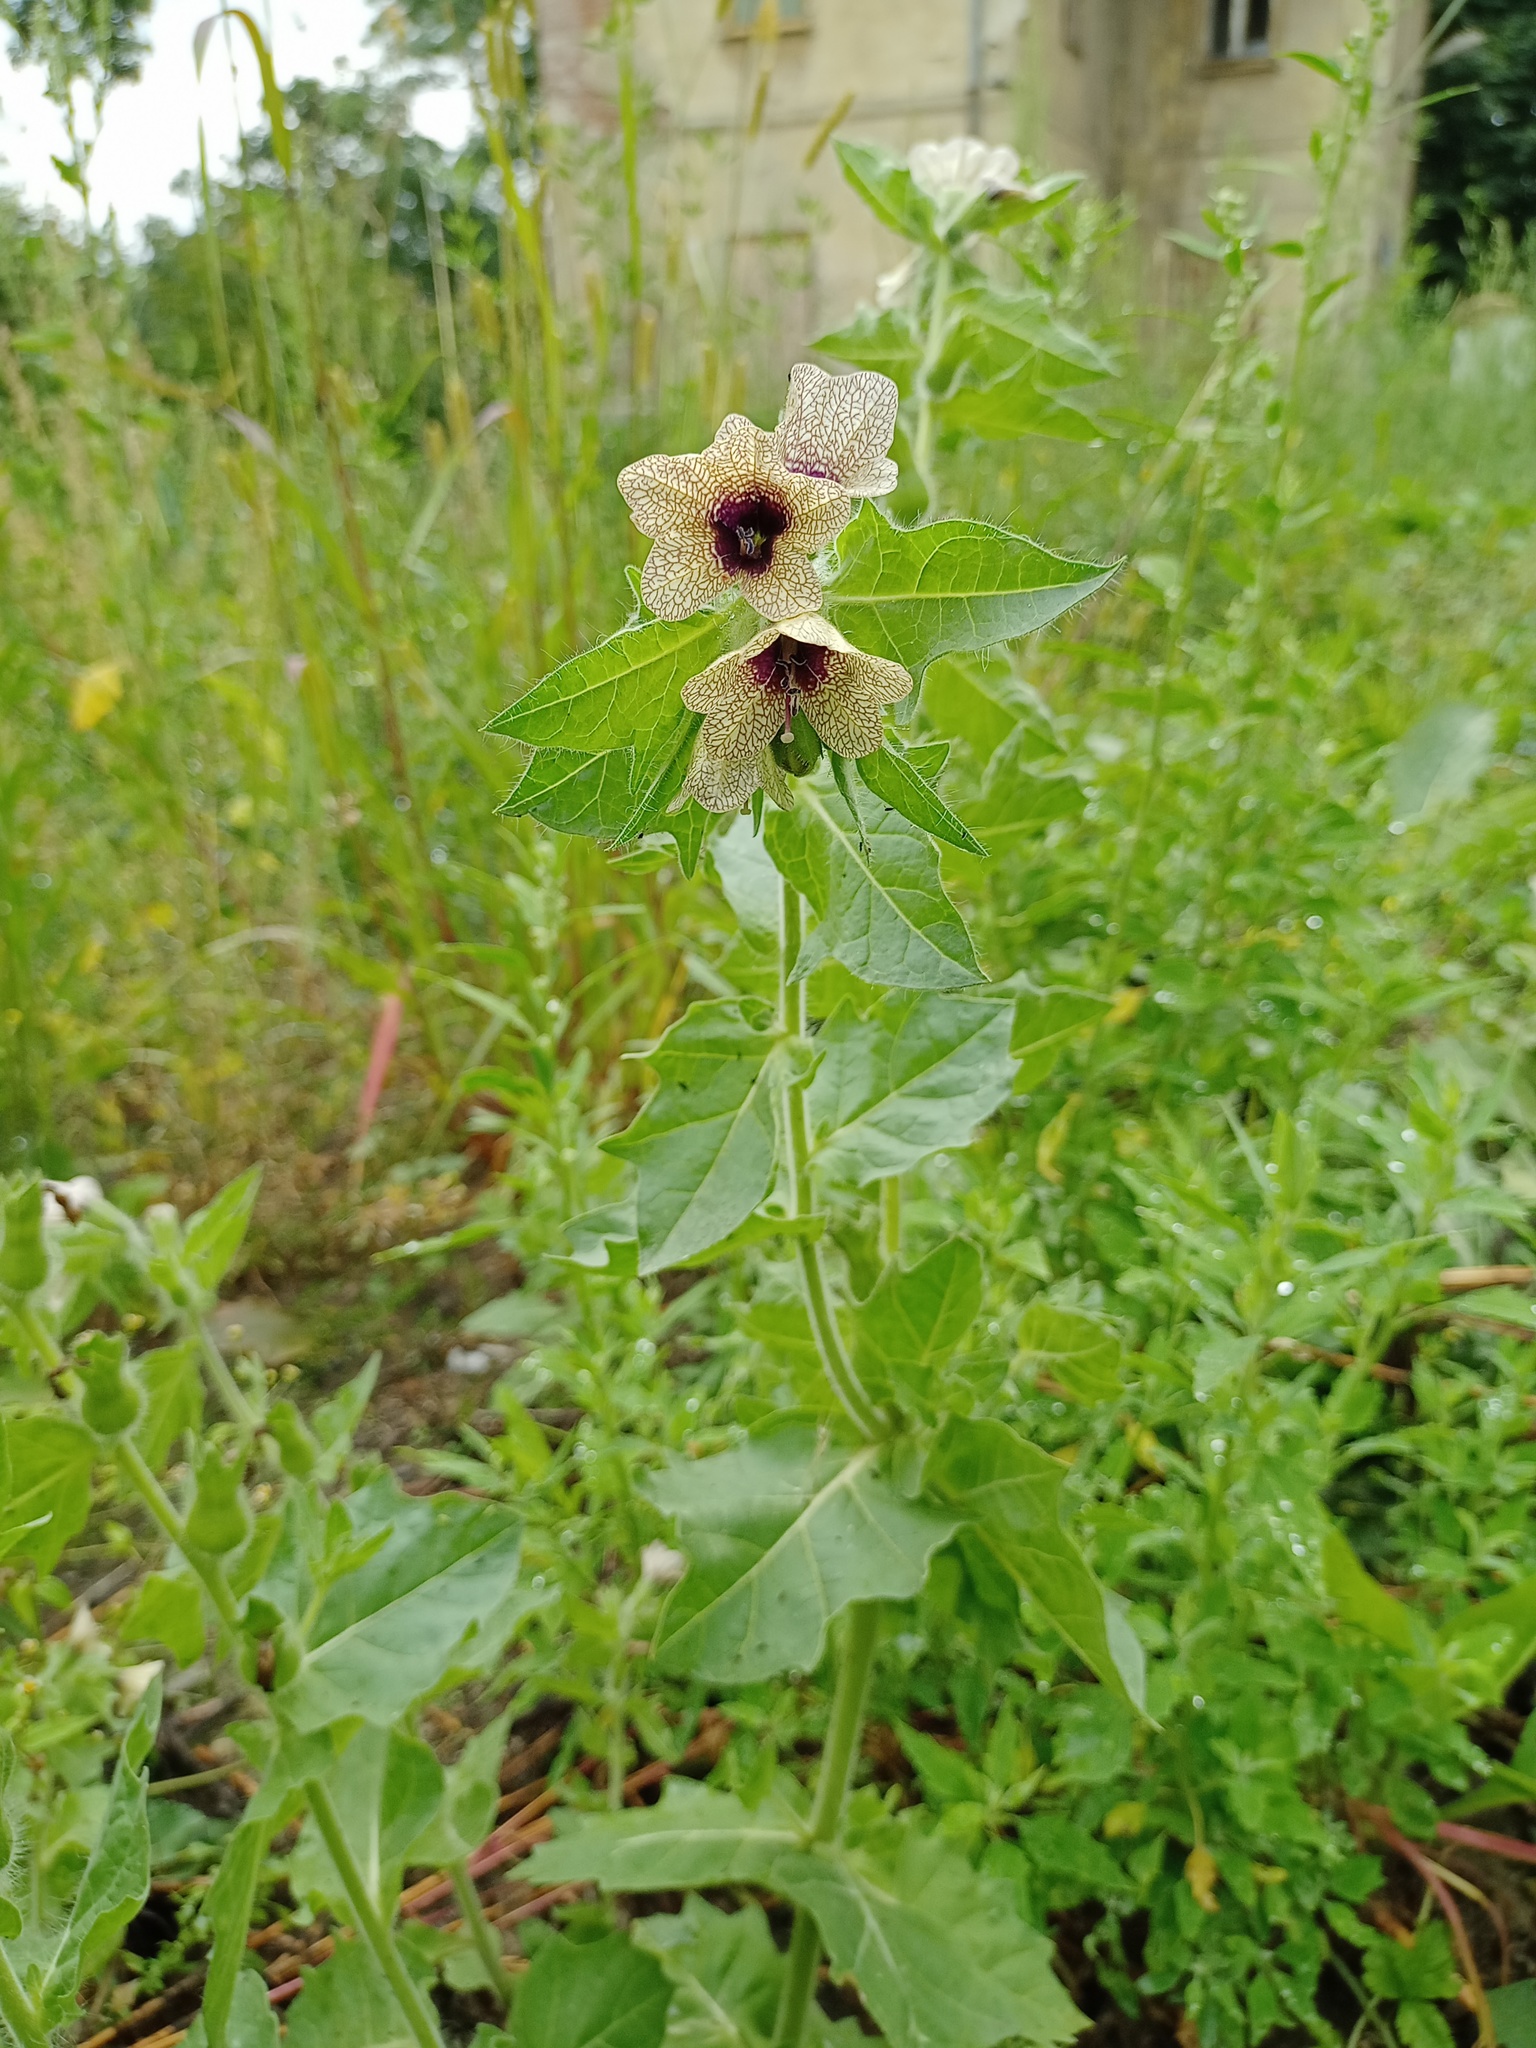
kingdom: Plantae
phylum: Tracheophyta
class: Magnoliopsida
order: Solanales
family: Solanaceae
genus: Hyoscyamus
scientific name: Hyoscyamus niger
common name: Henbane
